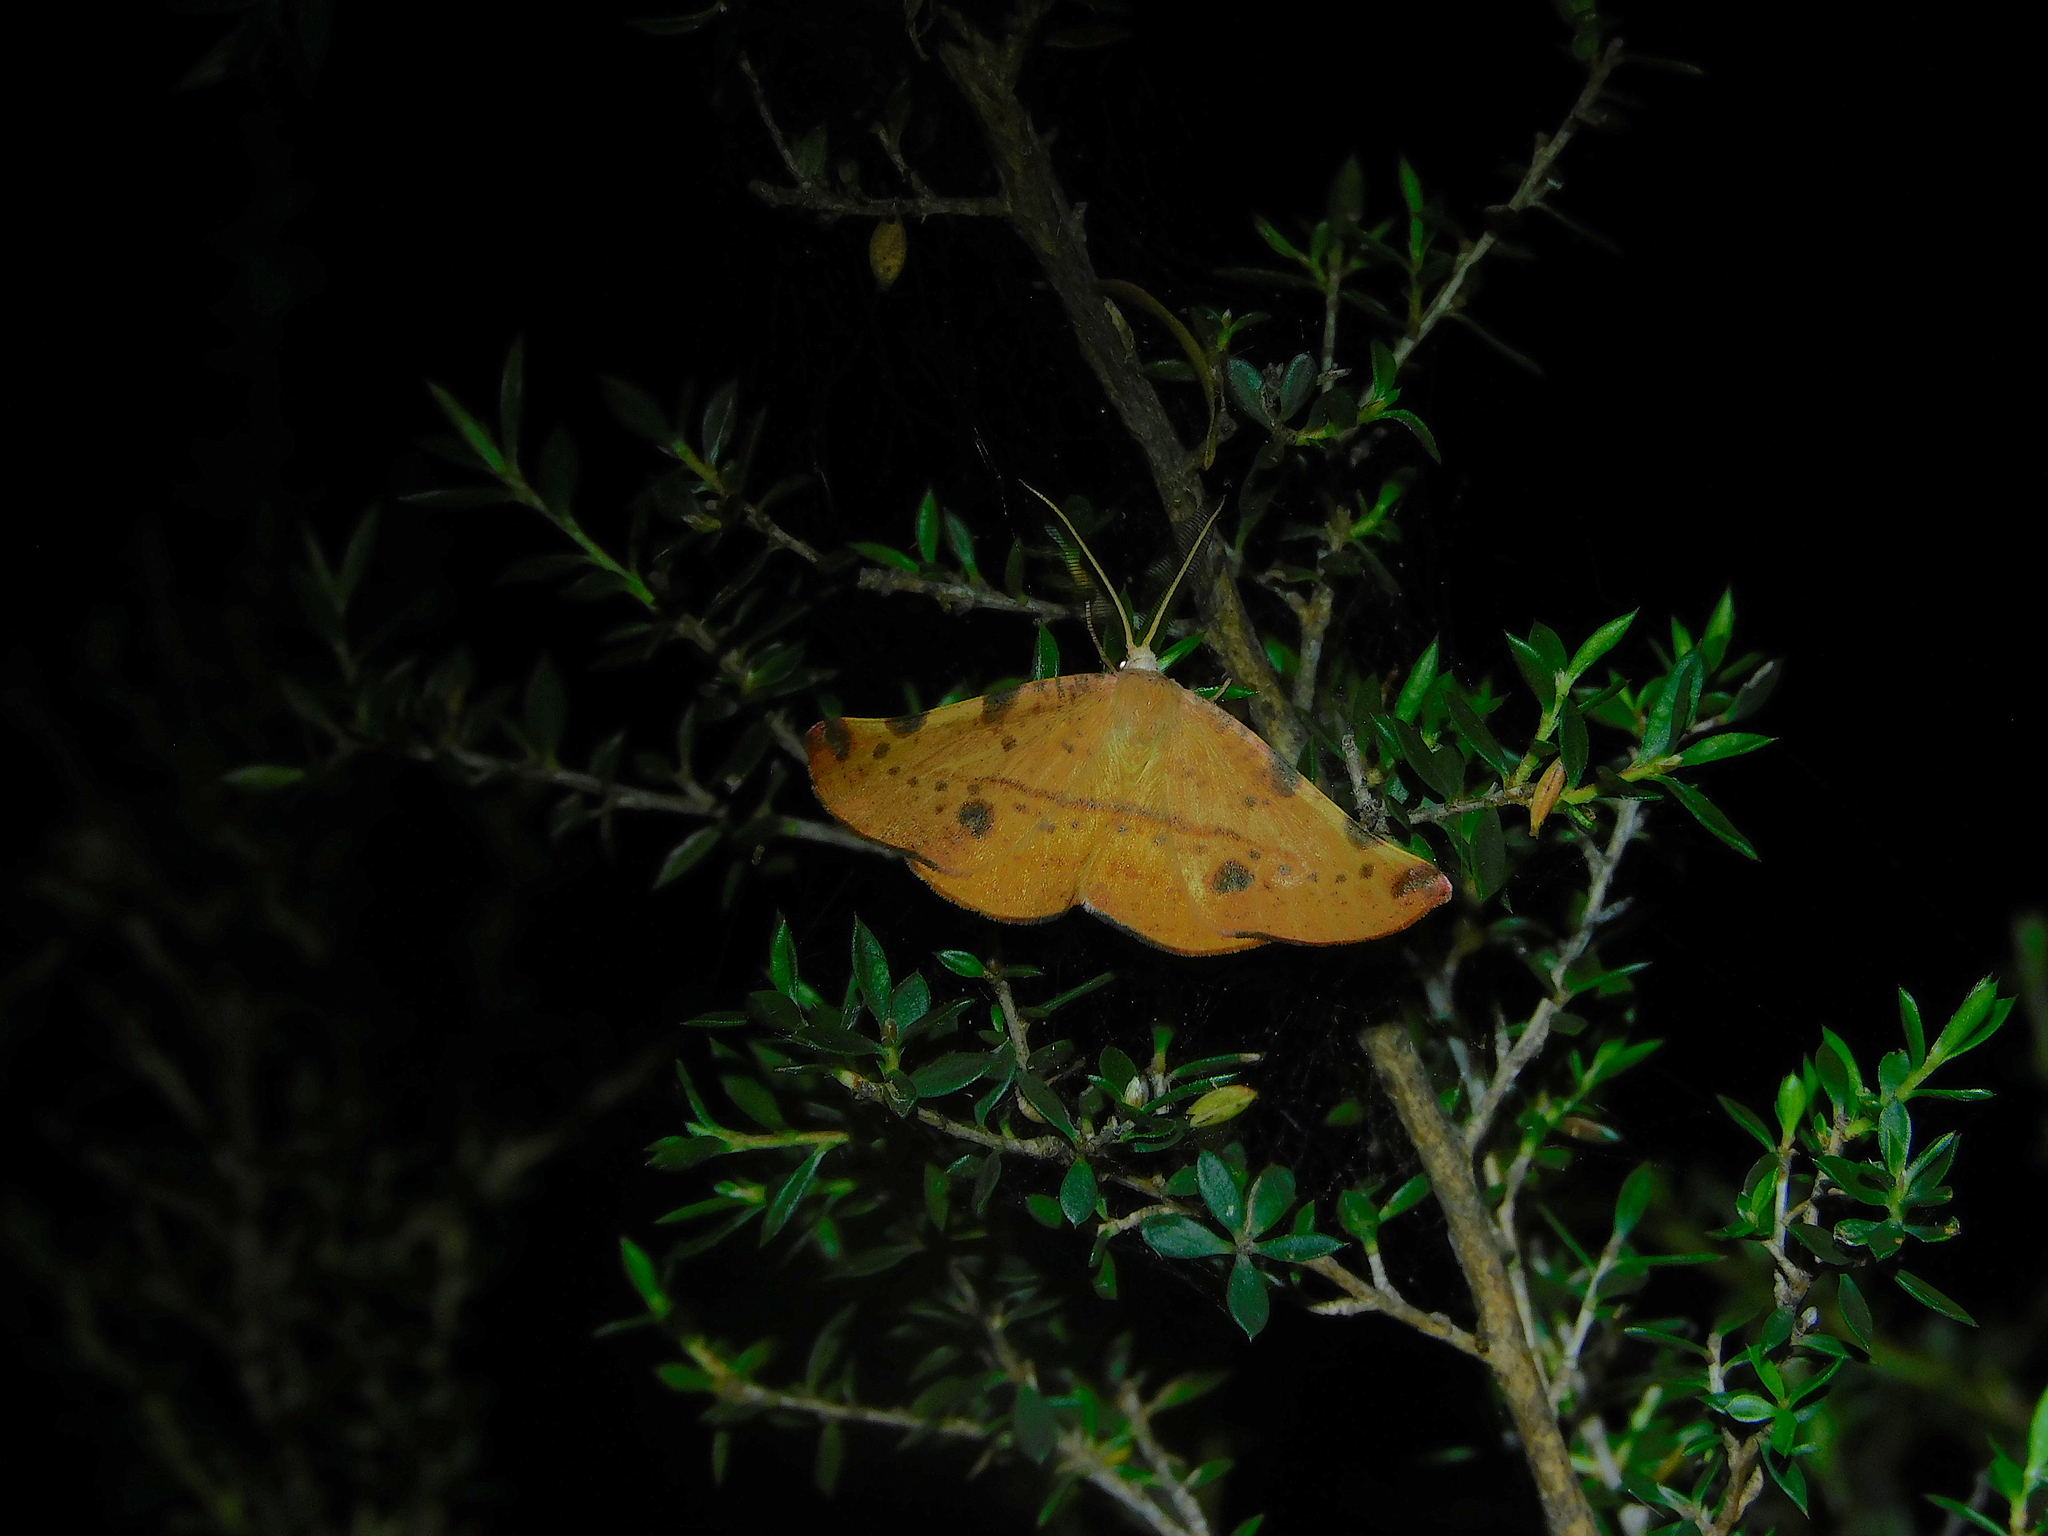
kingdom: Animalia
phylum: Arthropoda
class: Insecta
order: Lepidoptera
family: Geometridae
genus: Onycodes
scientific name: Onycodes traumataria
